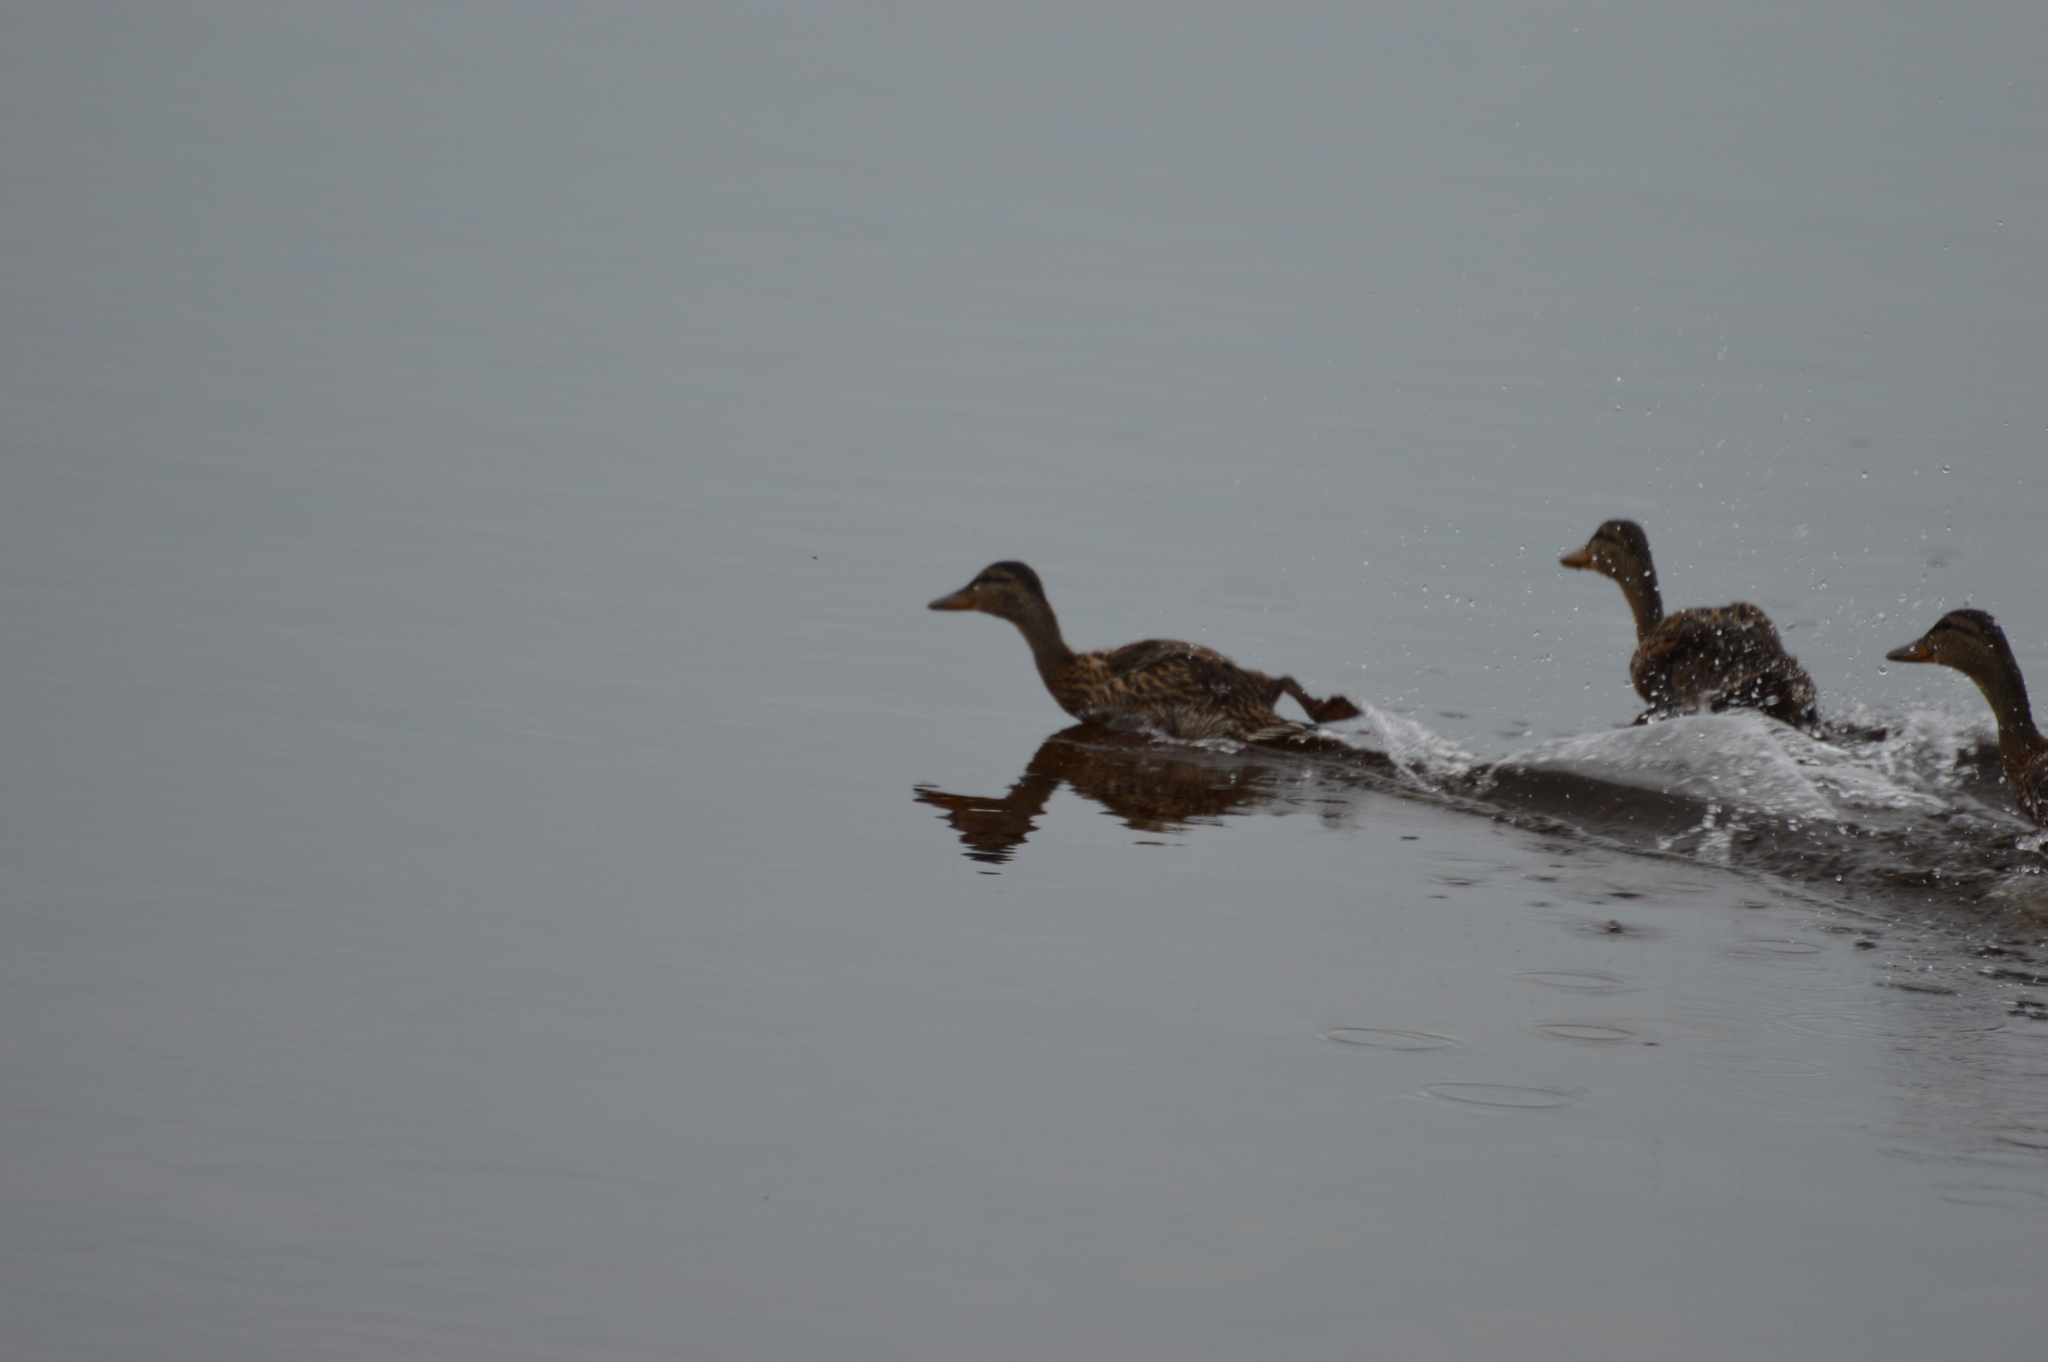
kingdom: Animalia
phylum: Chordata
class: Aves
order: Anseriformes
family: Anatidae
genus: Anas
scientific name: Anas platyrhynchos
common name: Mallard
